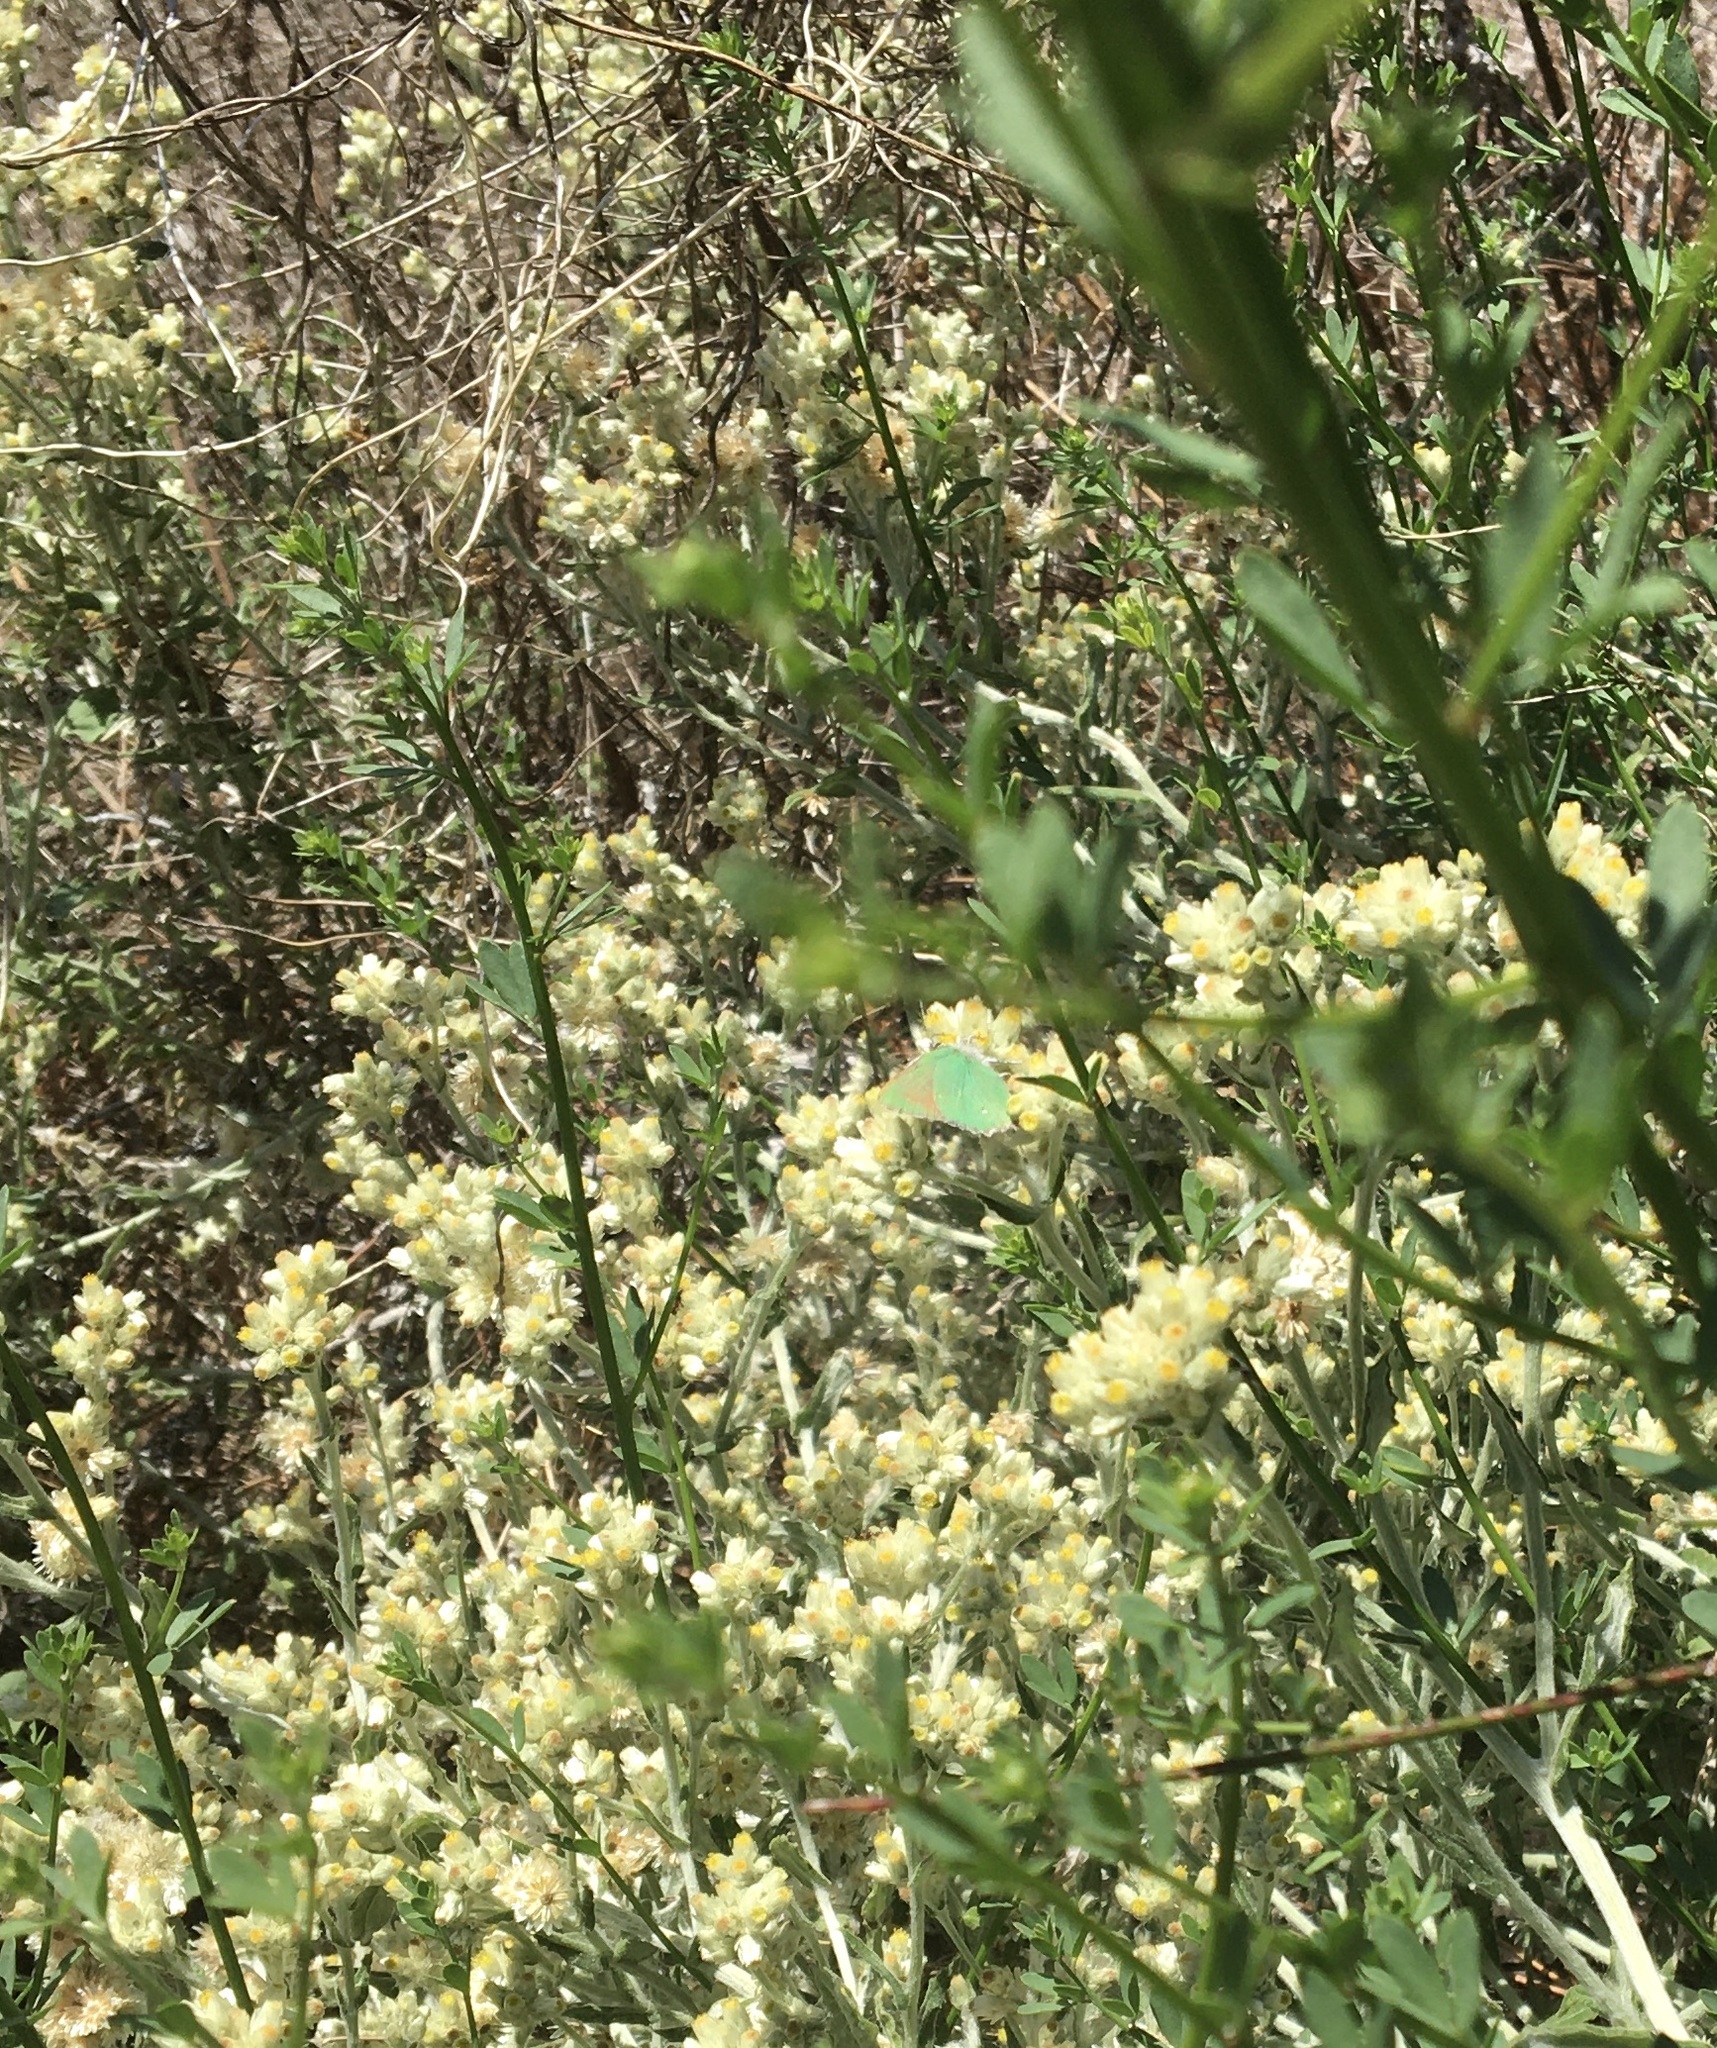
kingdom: Animalia
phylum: Arthropoda
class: Insecta
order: Lepidoptera
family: Lycaenidae
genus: Callophrys
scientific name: Callophrys dumetorum
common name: Bramble hairstreak
